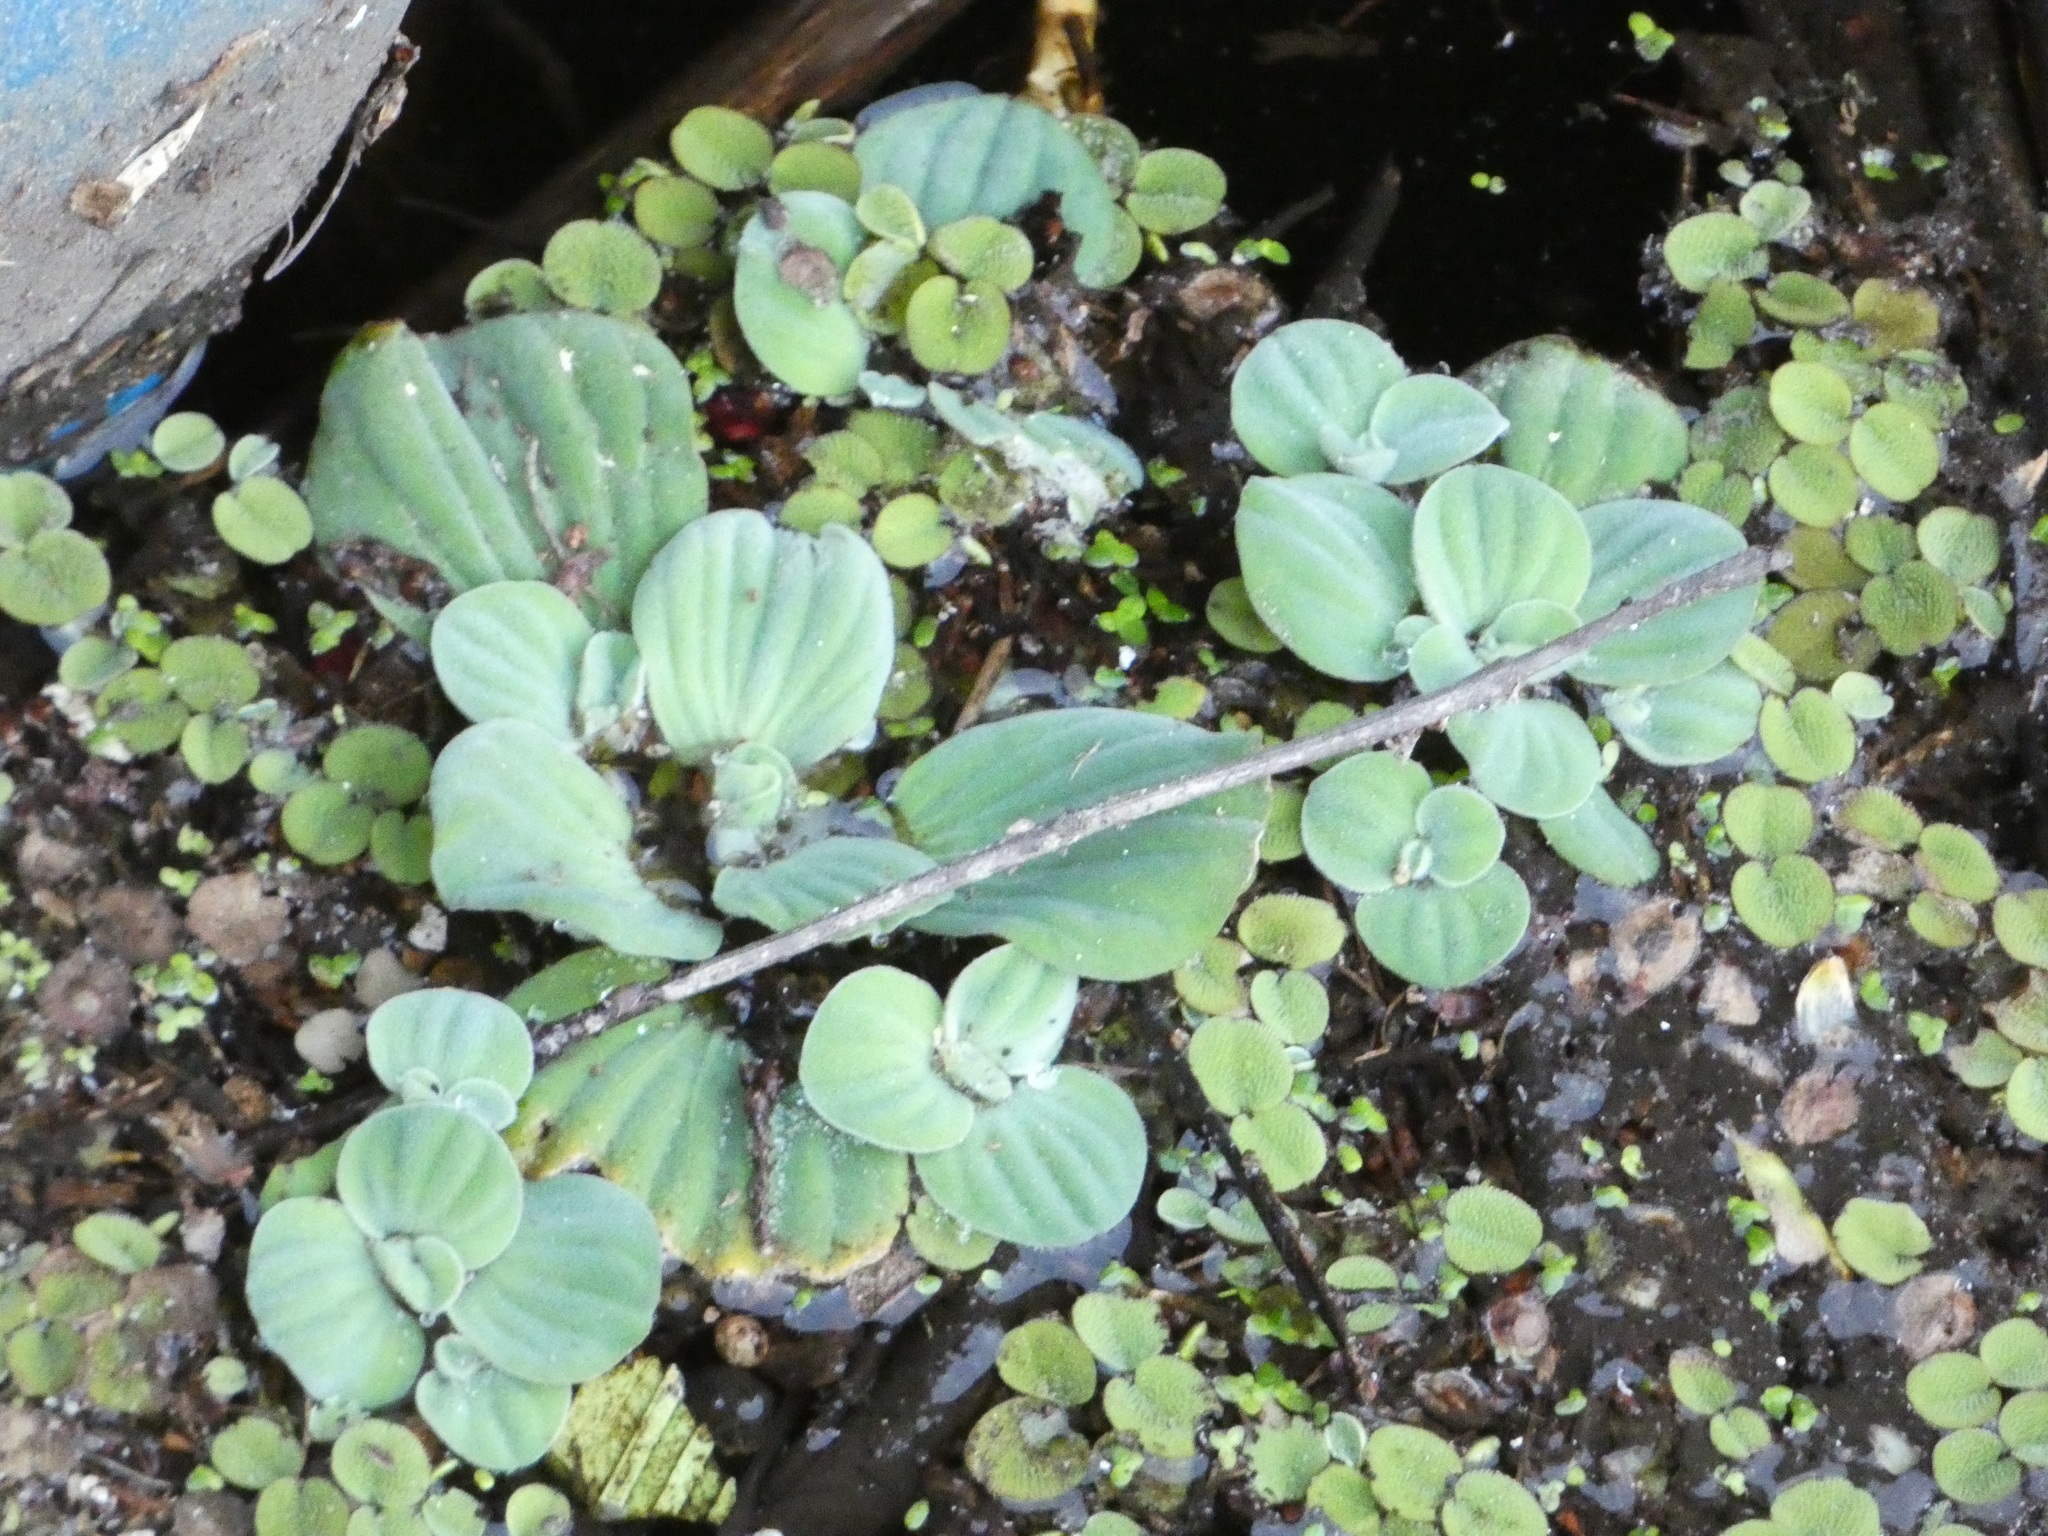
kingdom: Plantae
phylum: Tracheophyta
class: Liliopsida
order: Alismatales
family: Araceae
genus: Pistia
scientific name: Pistia stratiotes
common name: Water lettuce
